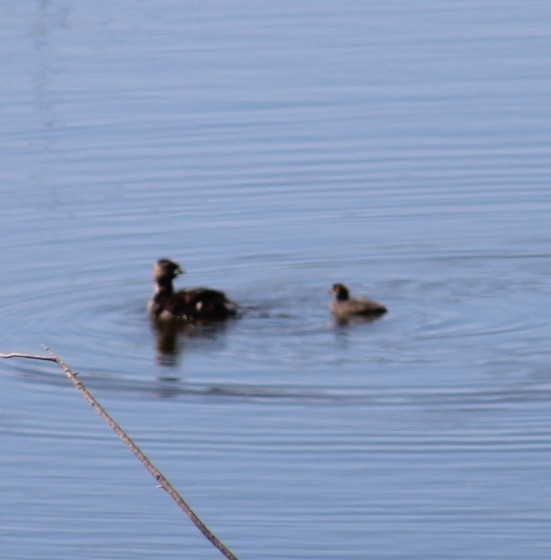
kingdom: Animalia
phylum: Chordata
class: Aves
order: Podicipediformes
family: Podicipedidae
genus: Podilymbus
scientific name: Podilymbus podiceps
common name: Pied-billed grebe
